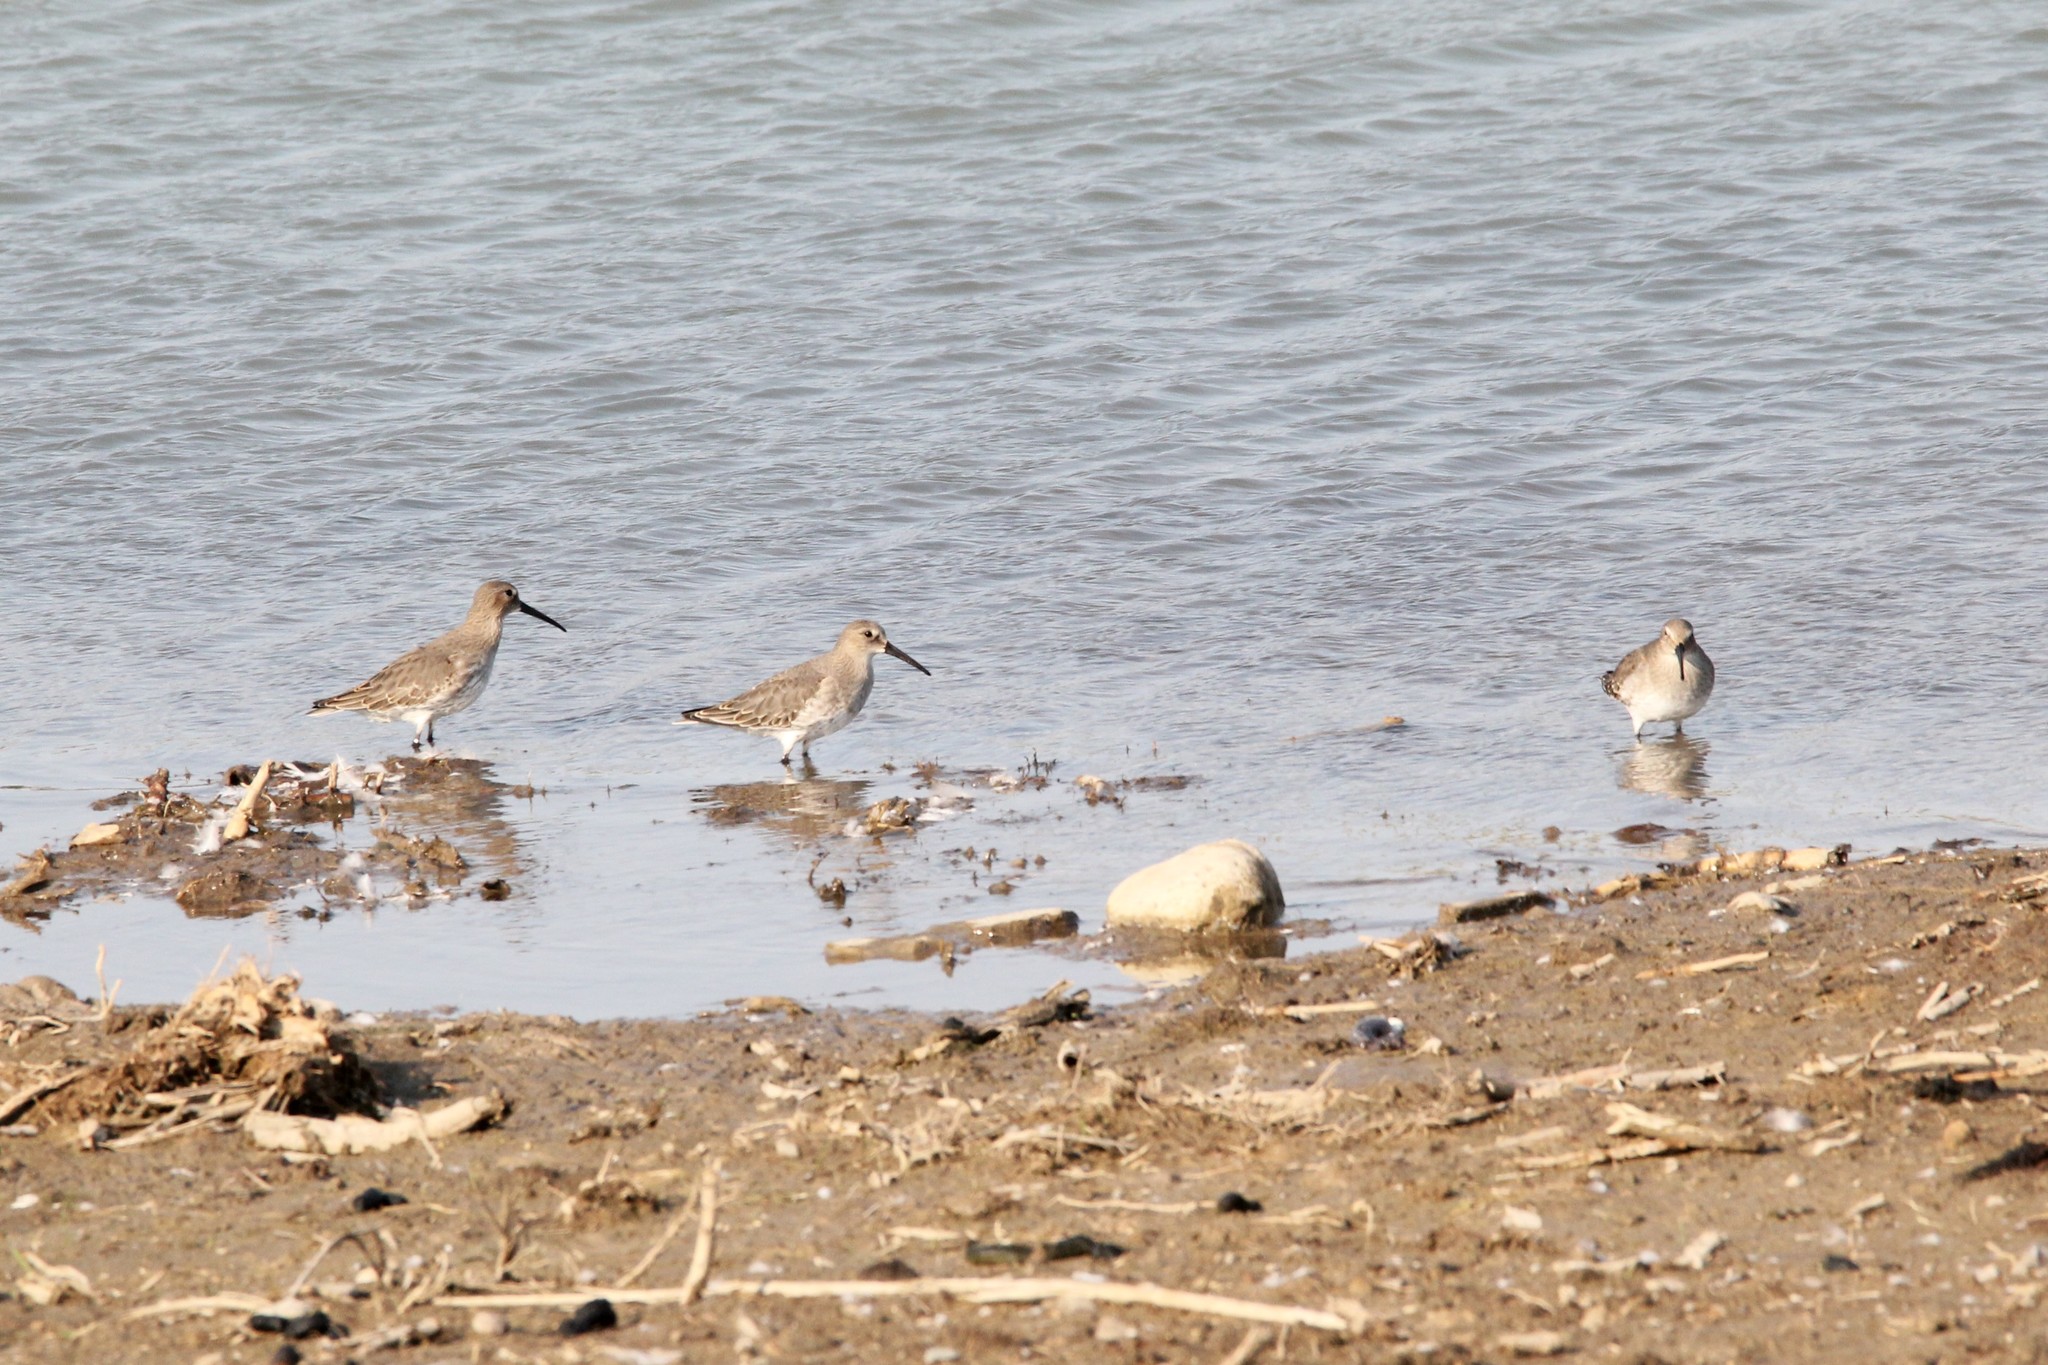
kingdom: Animalia
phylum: Chordata
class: Aves
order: Charadriiformes
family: Scolopacidae
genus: Calidris
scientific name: Calidris alpina
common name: Dunlin
